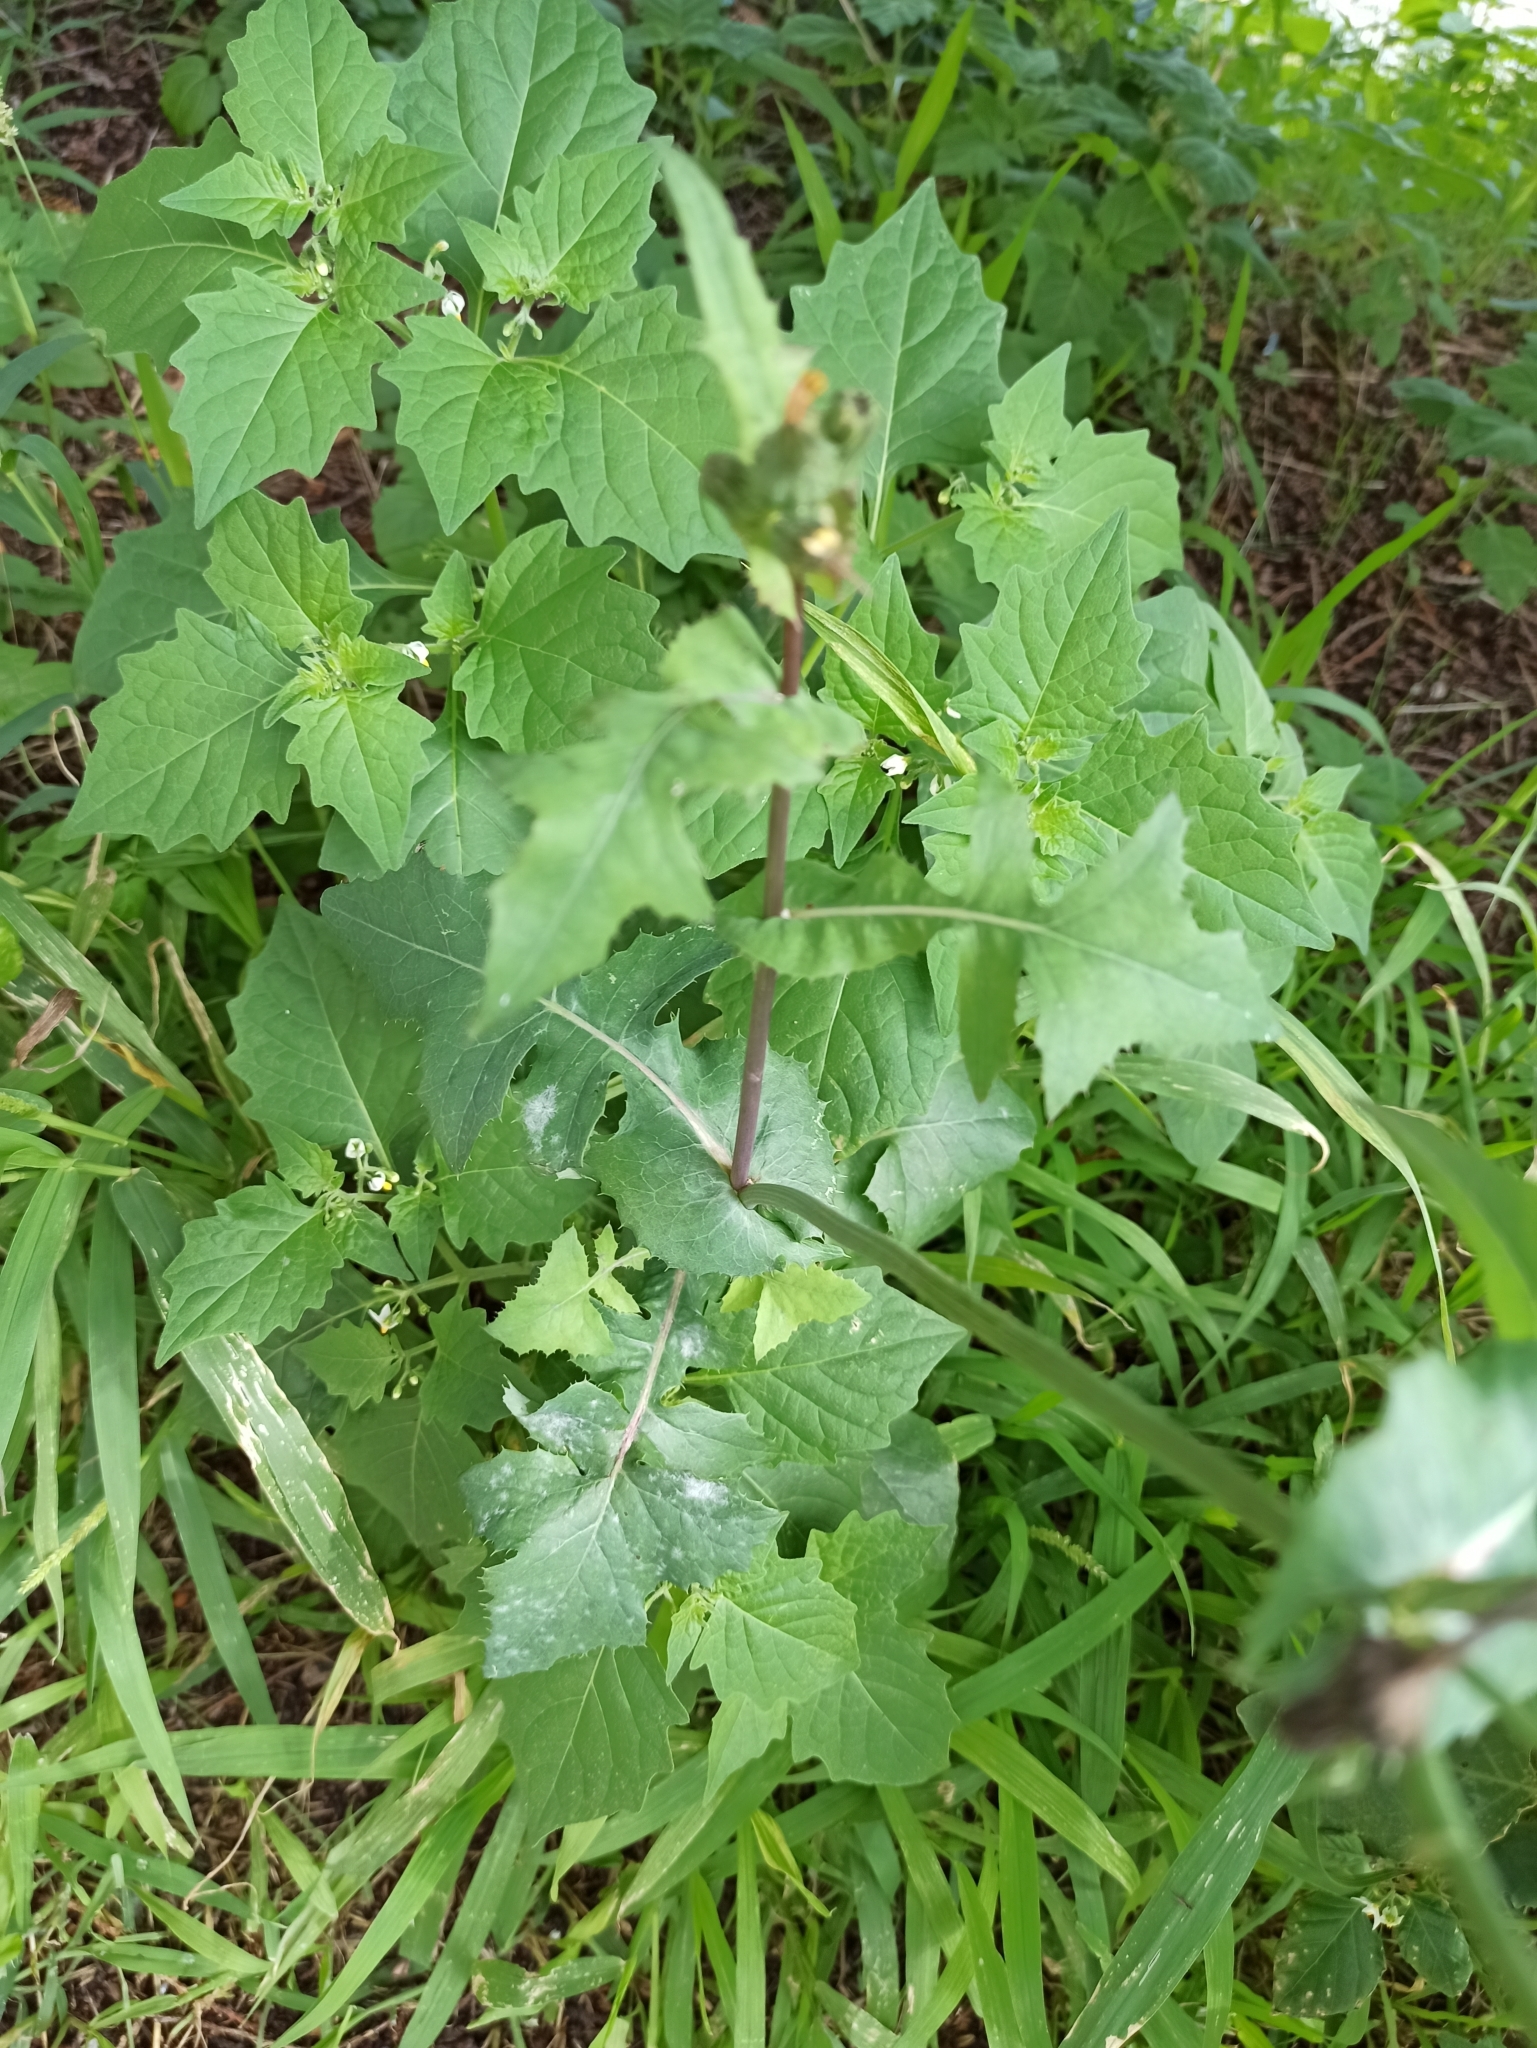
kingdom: Plantae
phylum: Tracheophyta
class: Magnoliopsida
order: Asterales
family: Asteraceae
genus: Sonchus
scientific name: Sonchus oleraceus
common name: Common sowthistle
